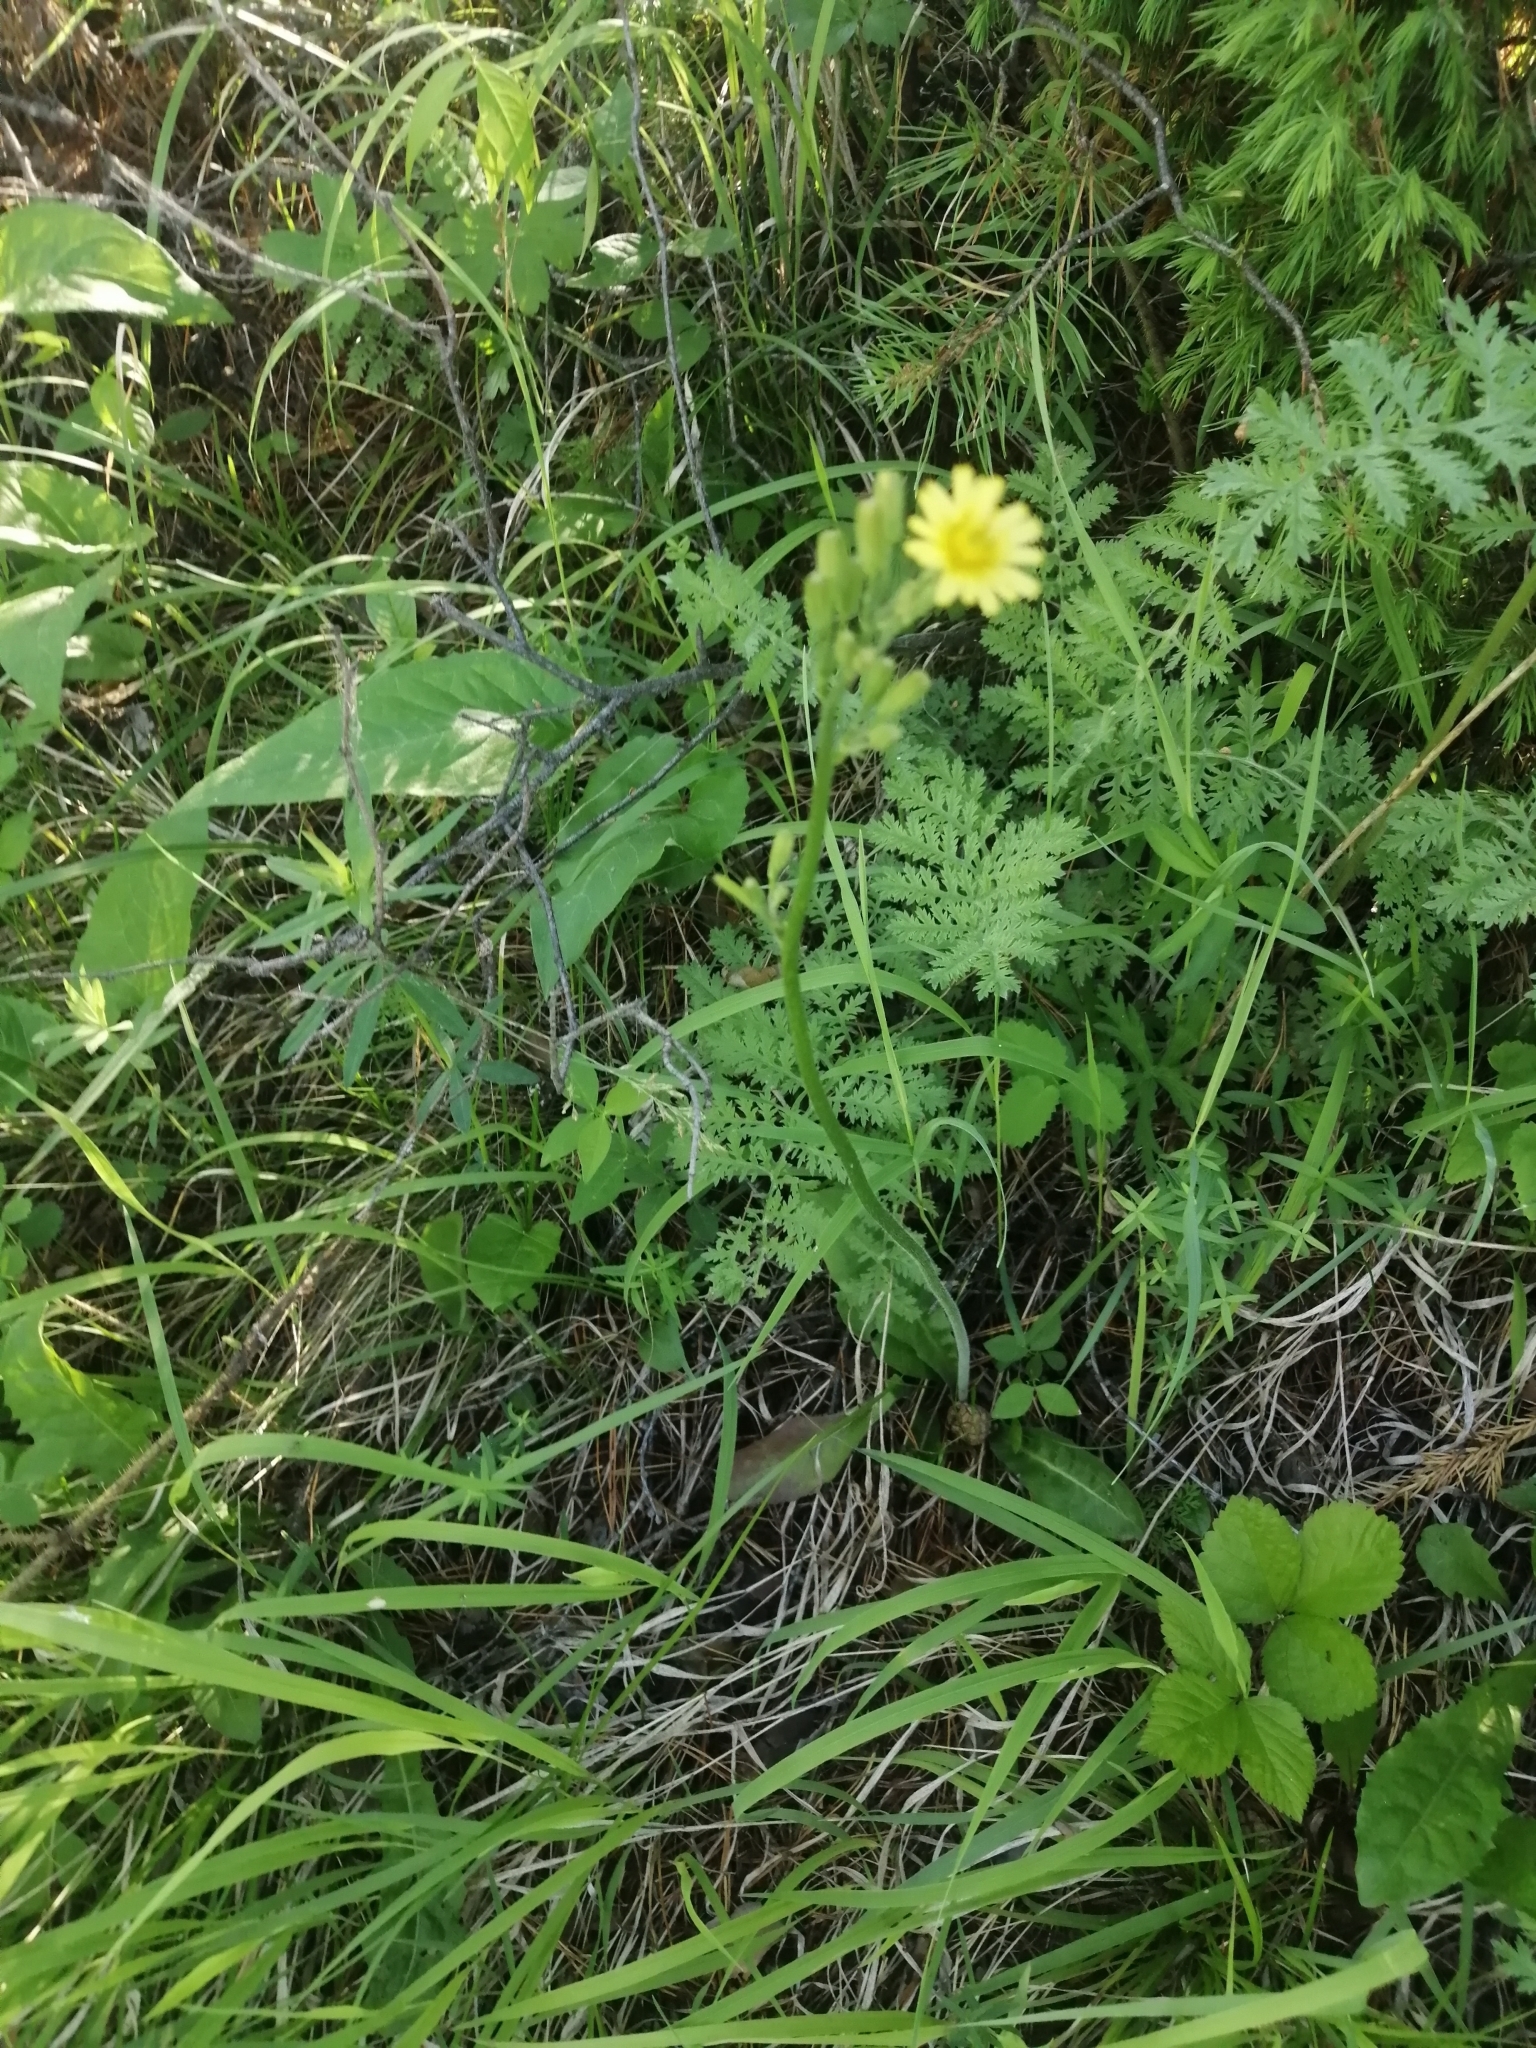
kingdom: Plantae
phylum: Tracheophyta
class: Magnoliopsida
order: Asterales
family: Asteraceae
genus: Crepis
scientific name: Crepis praemorsa
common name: Leafless hawk's-beard
